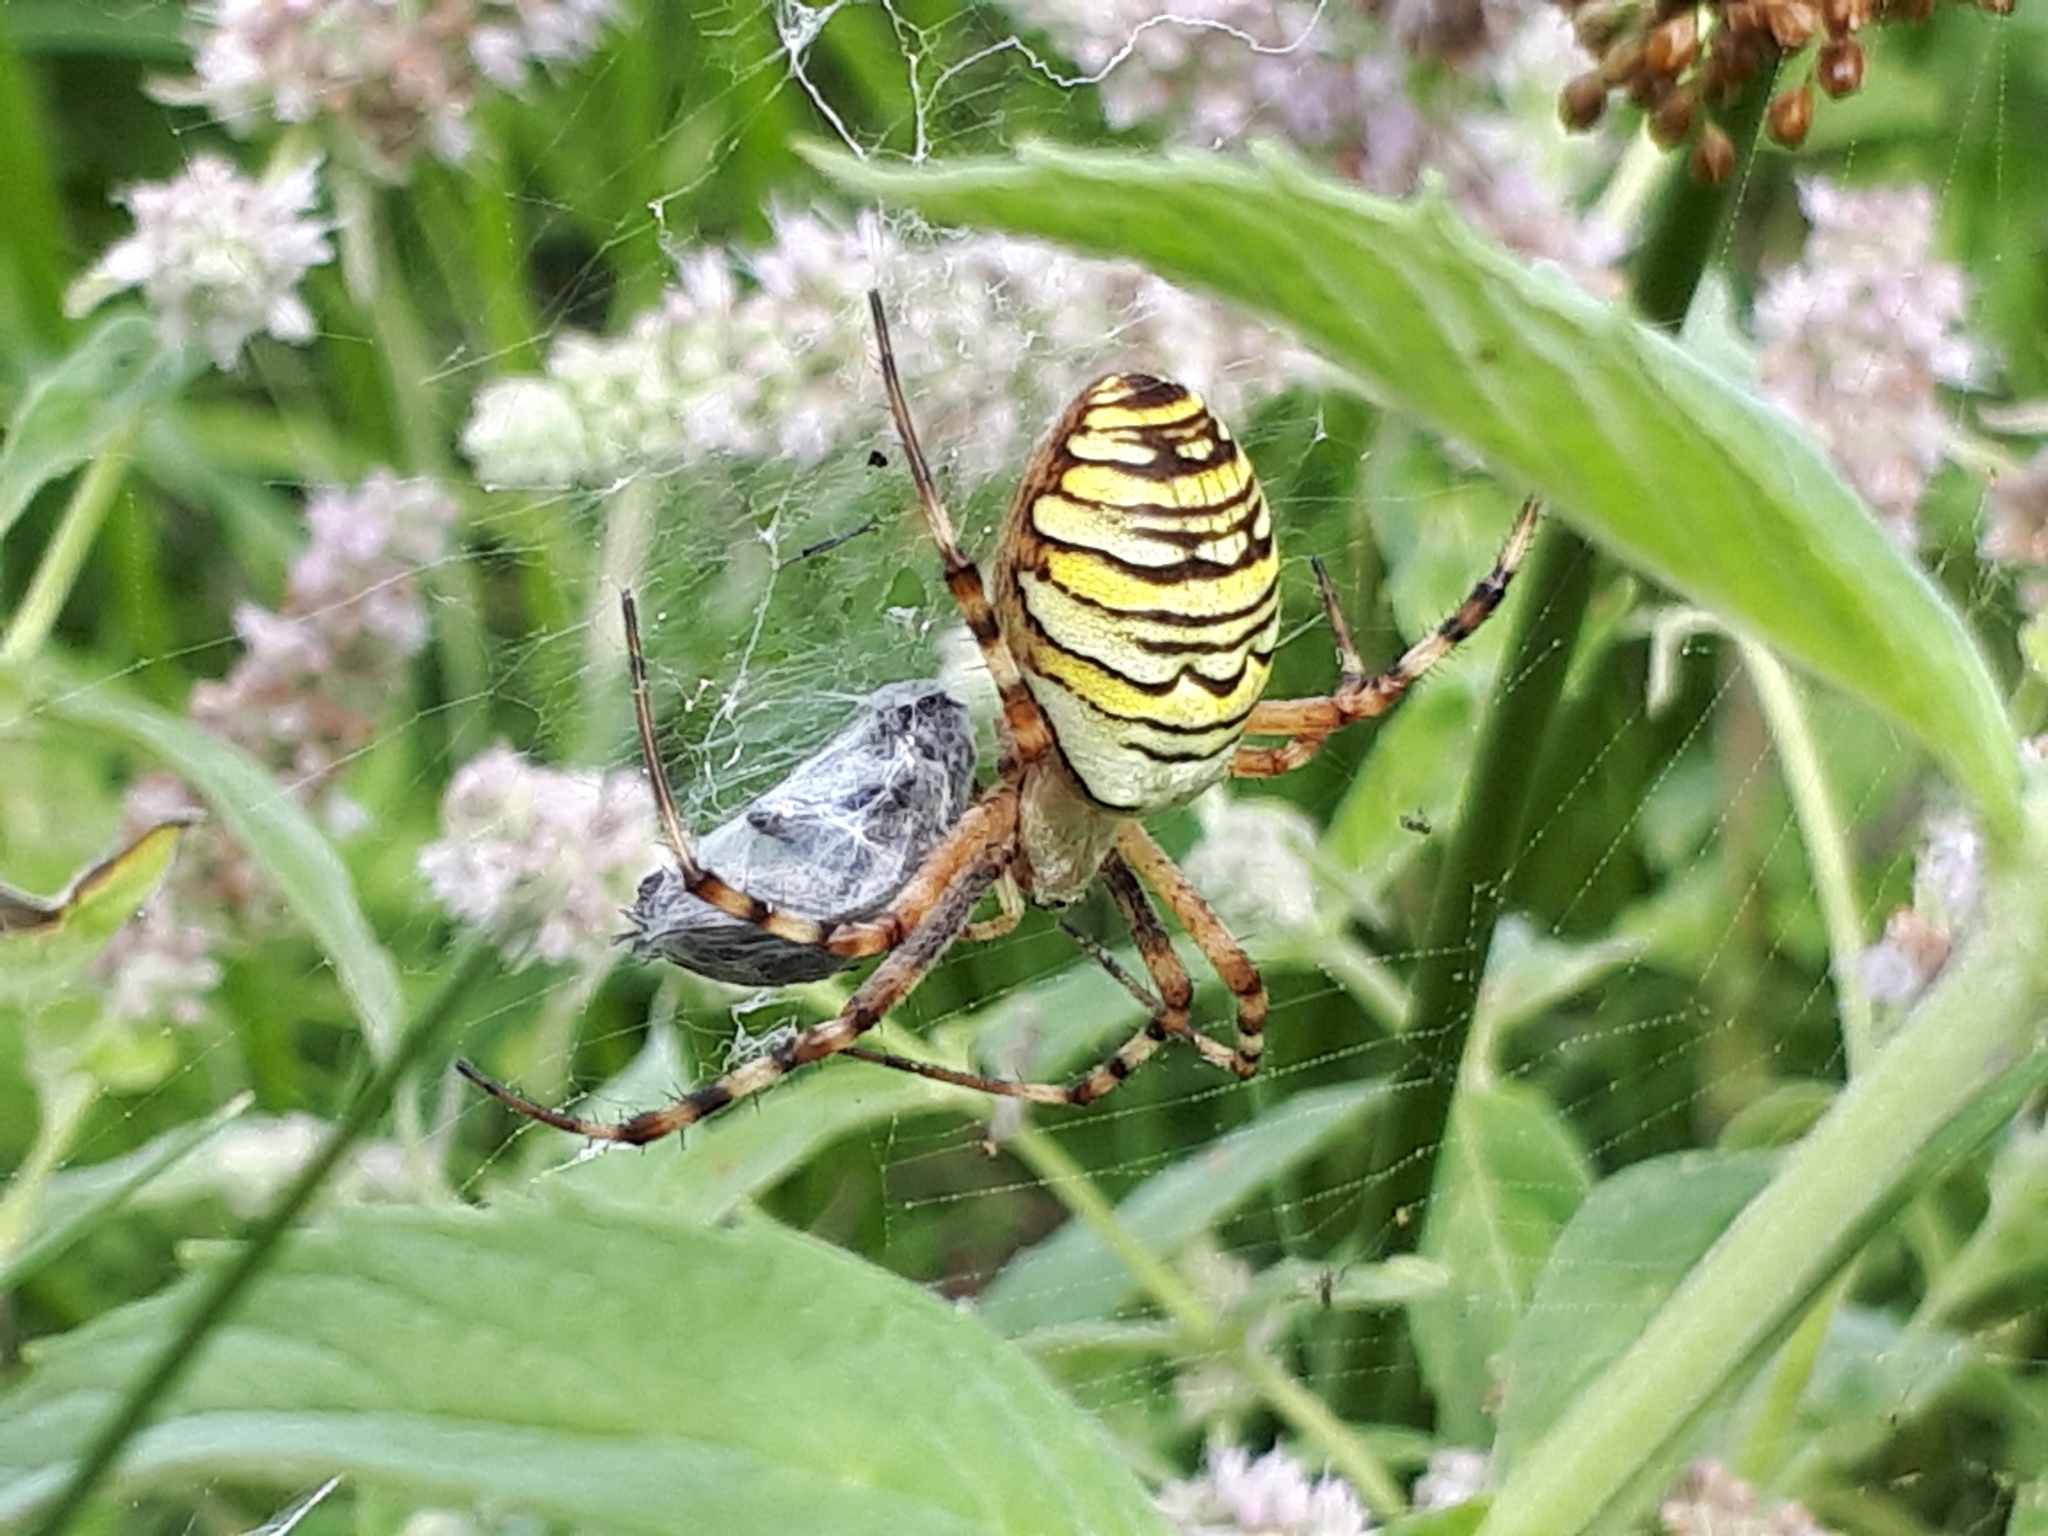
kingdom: Animalia
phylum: Arthropoda
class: Arachnida
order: Araneae
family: Araneidae
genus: Argiope
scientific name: Argiope bruennichi
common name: Wasp spider
